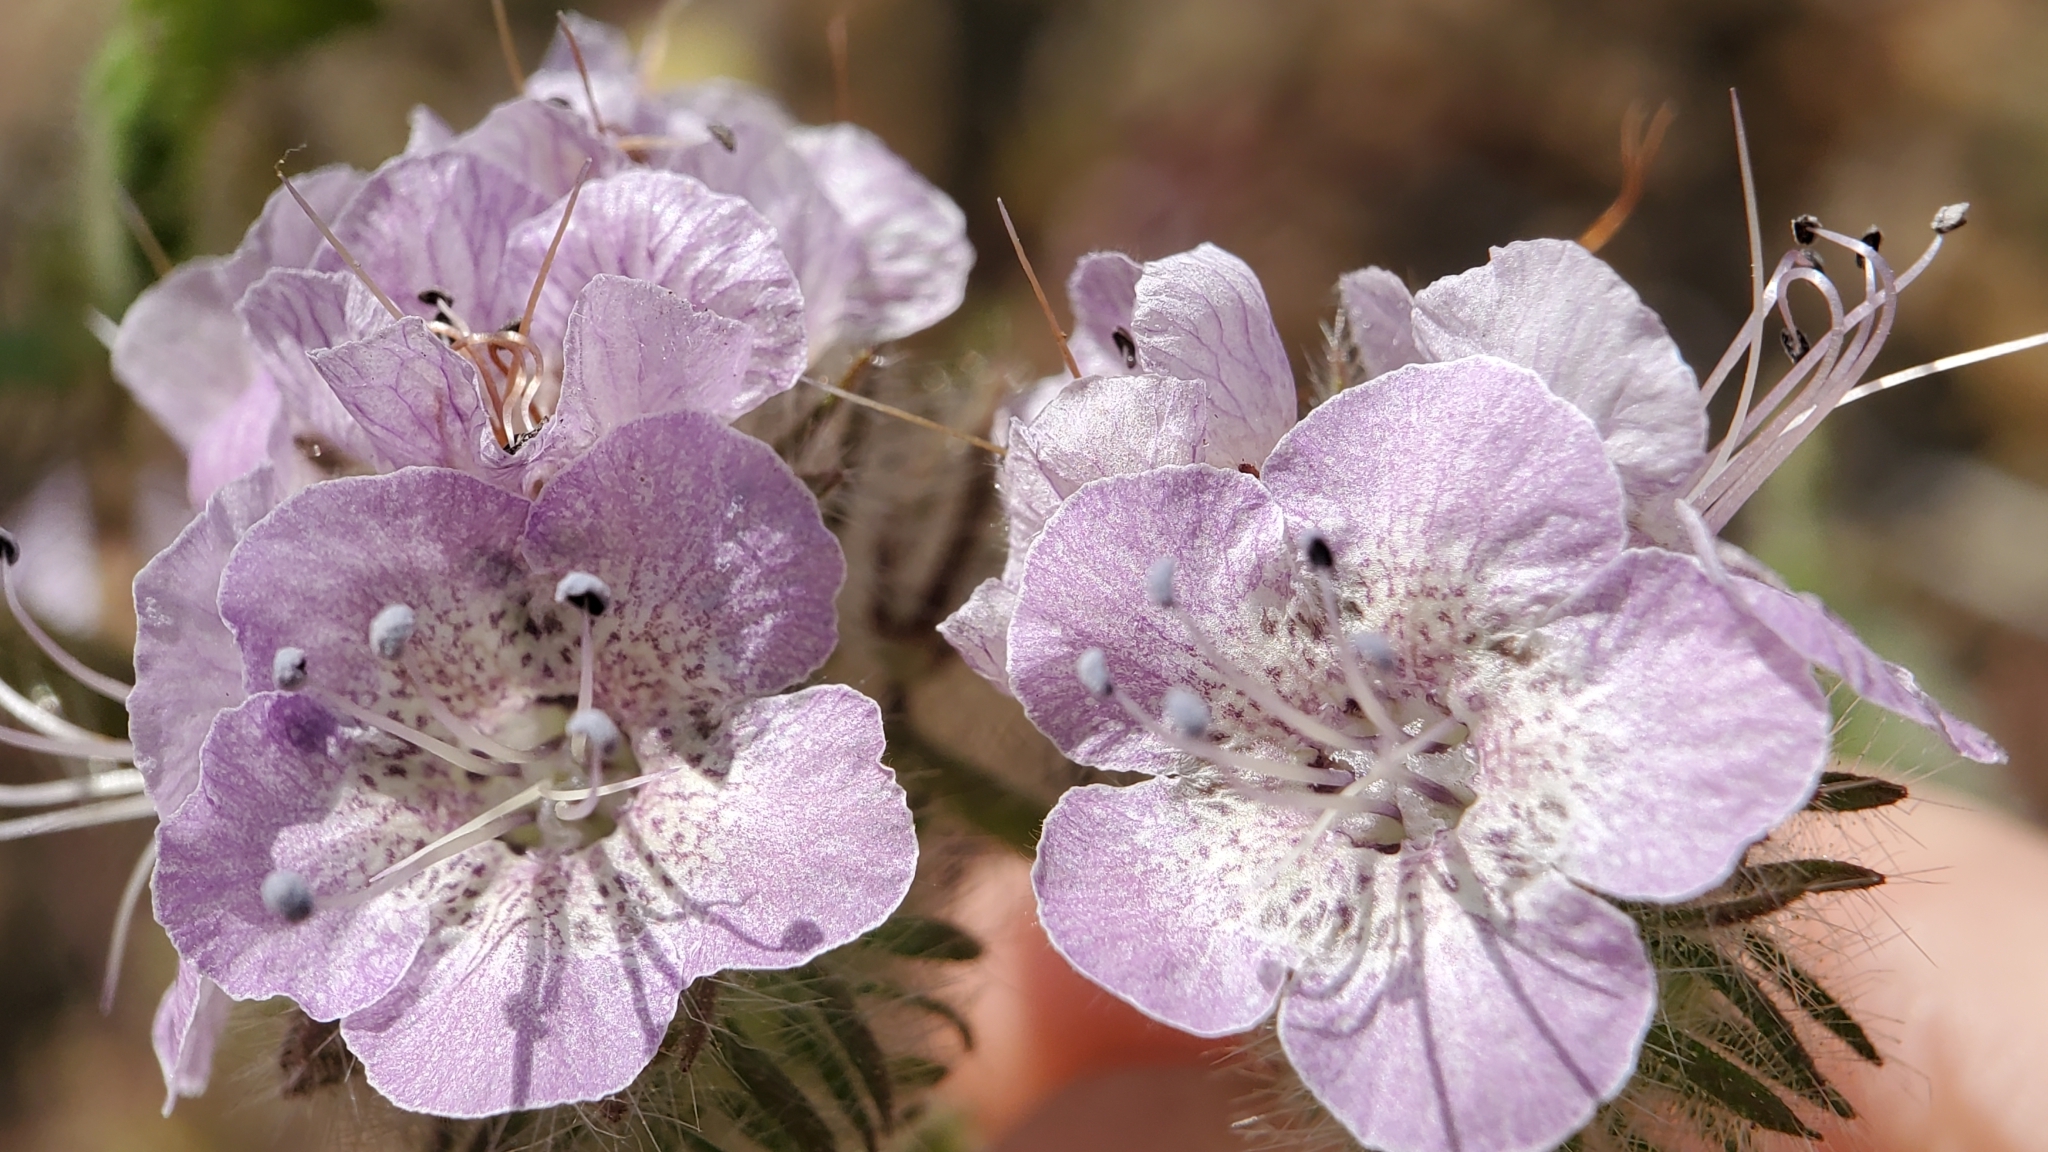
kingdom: Plantae
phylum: Tracheophyta
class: Magnoliopsida
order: Boraginales
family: Hydrophyllaceae
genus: Phacelia
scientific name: Phacelia cicutaria
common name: Caterpillar phacelia
